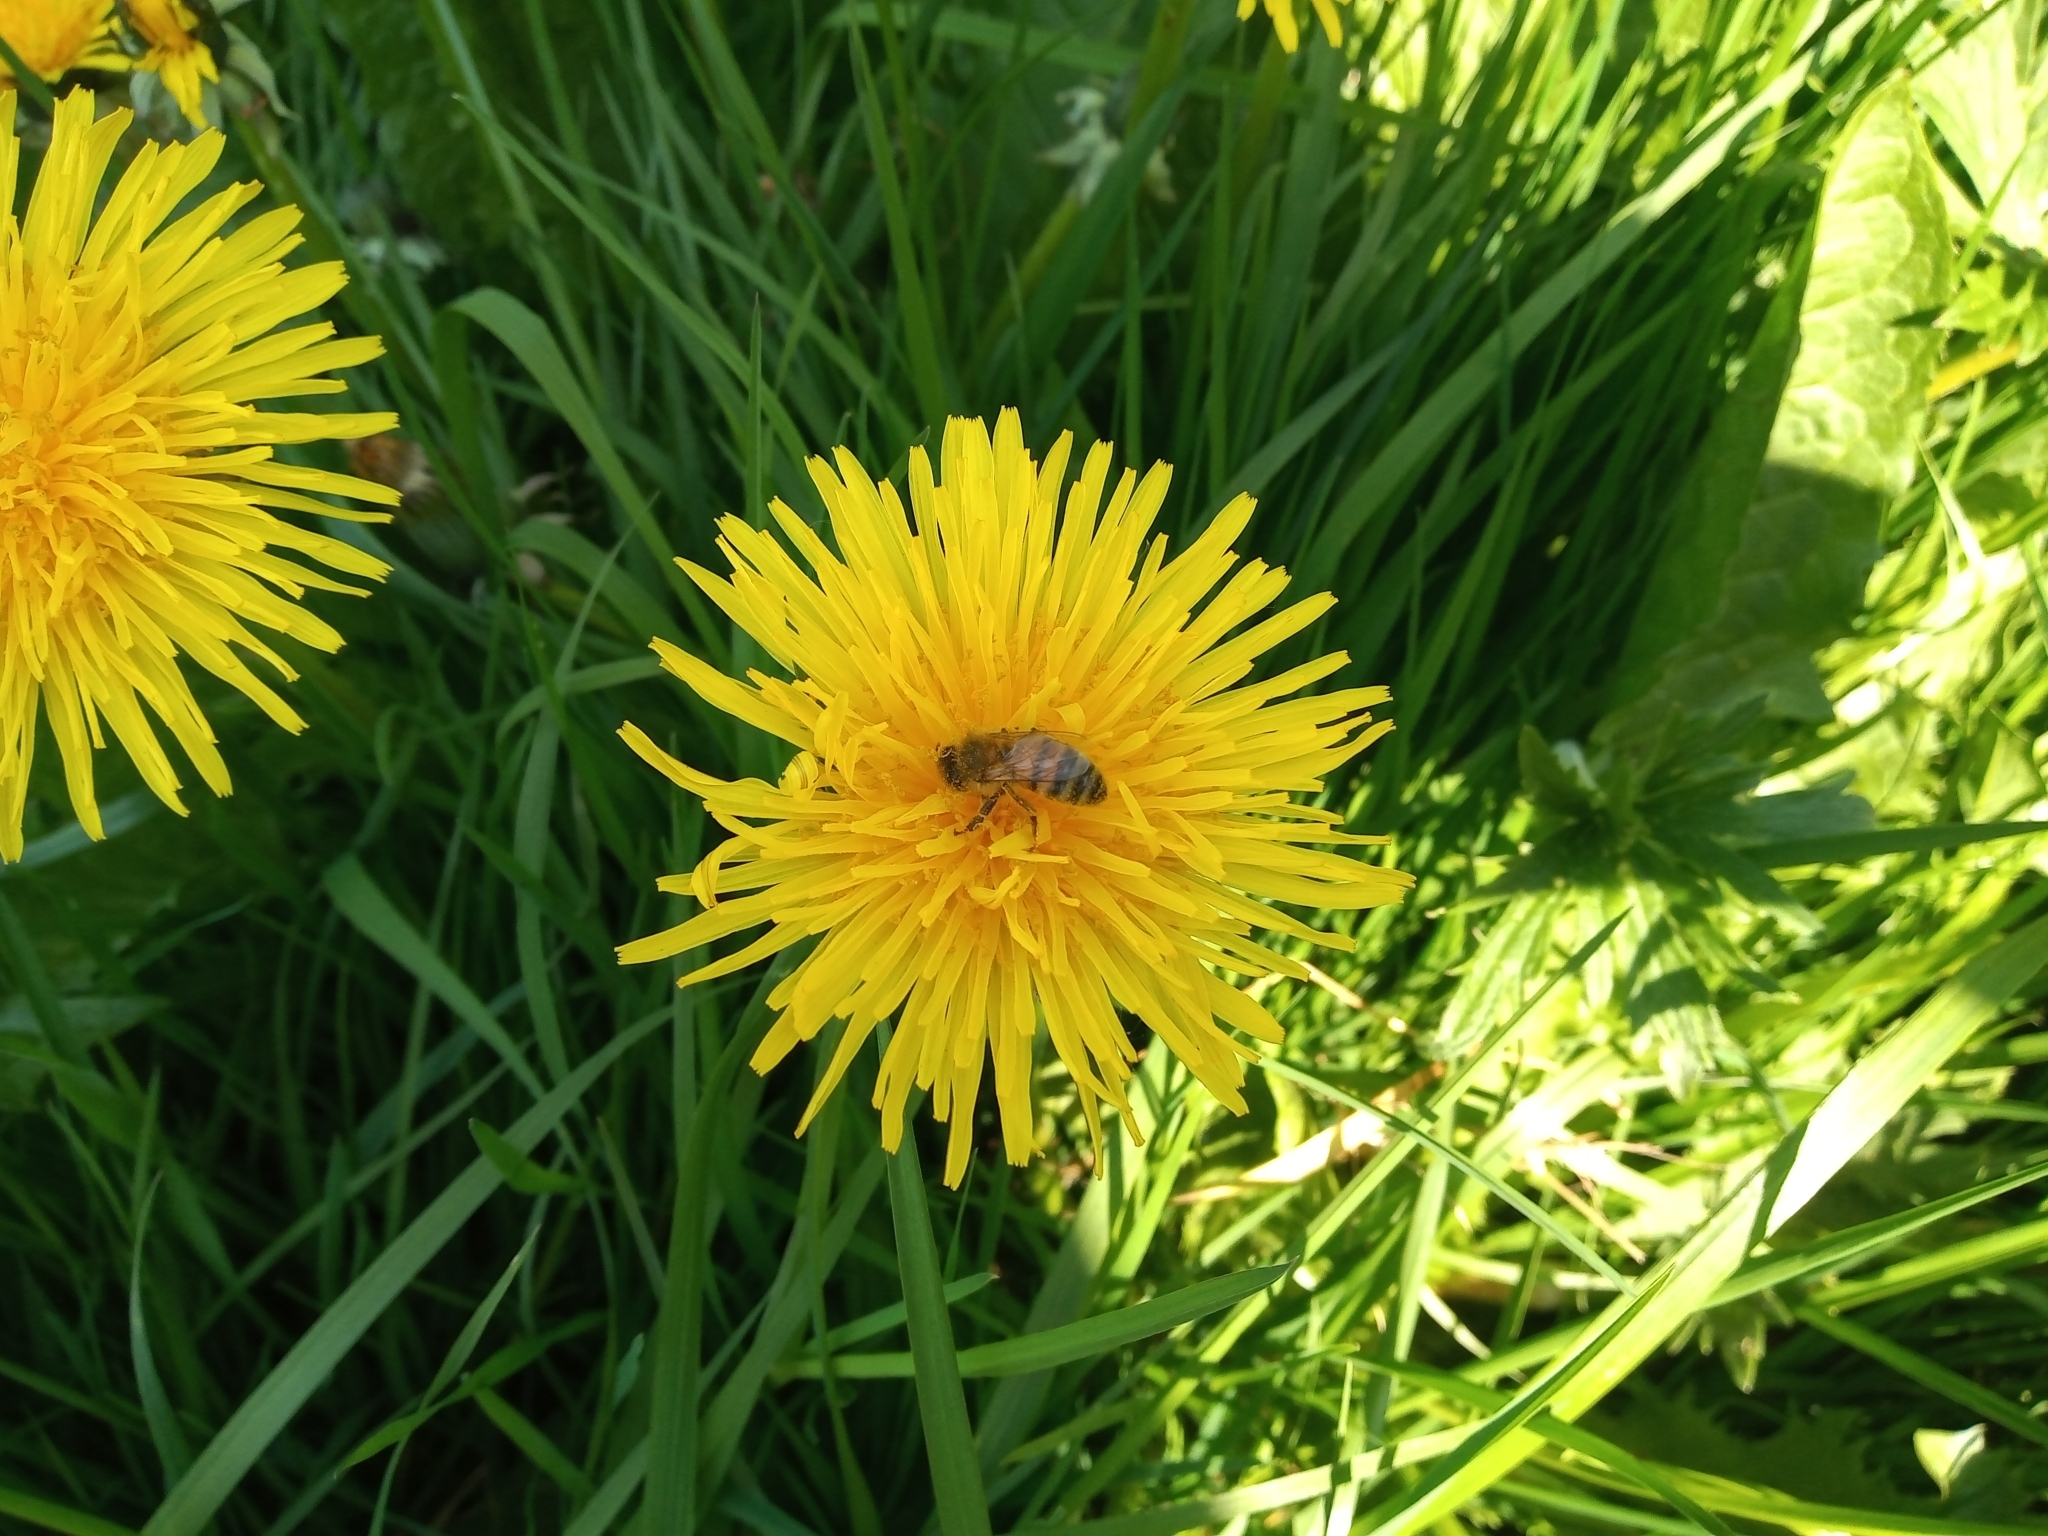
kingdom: Animalia
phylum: Arthropoda
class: Insecta
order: Hymenoptera
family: Apidae
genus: Apis
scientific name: Apis mellifera
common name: Honey bee
